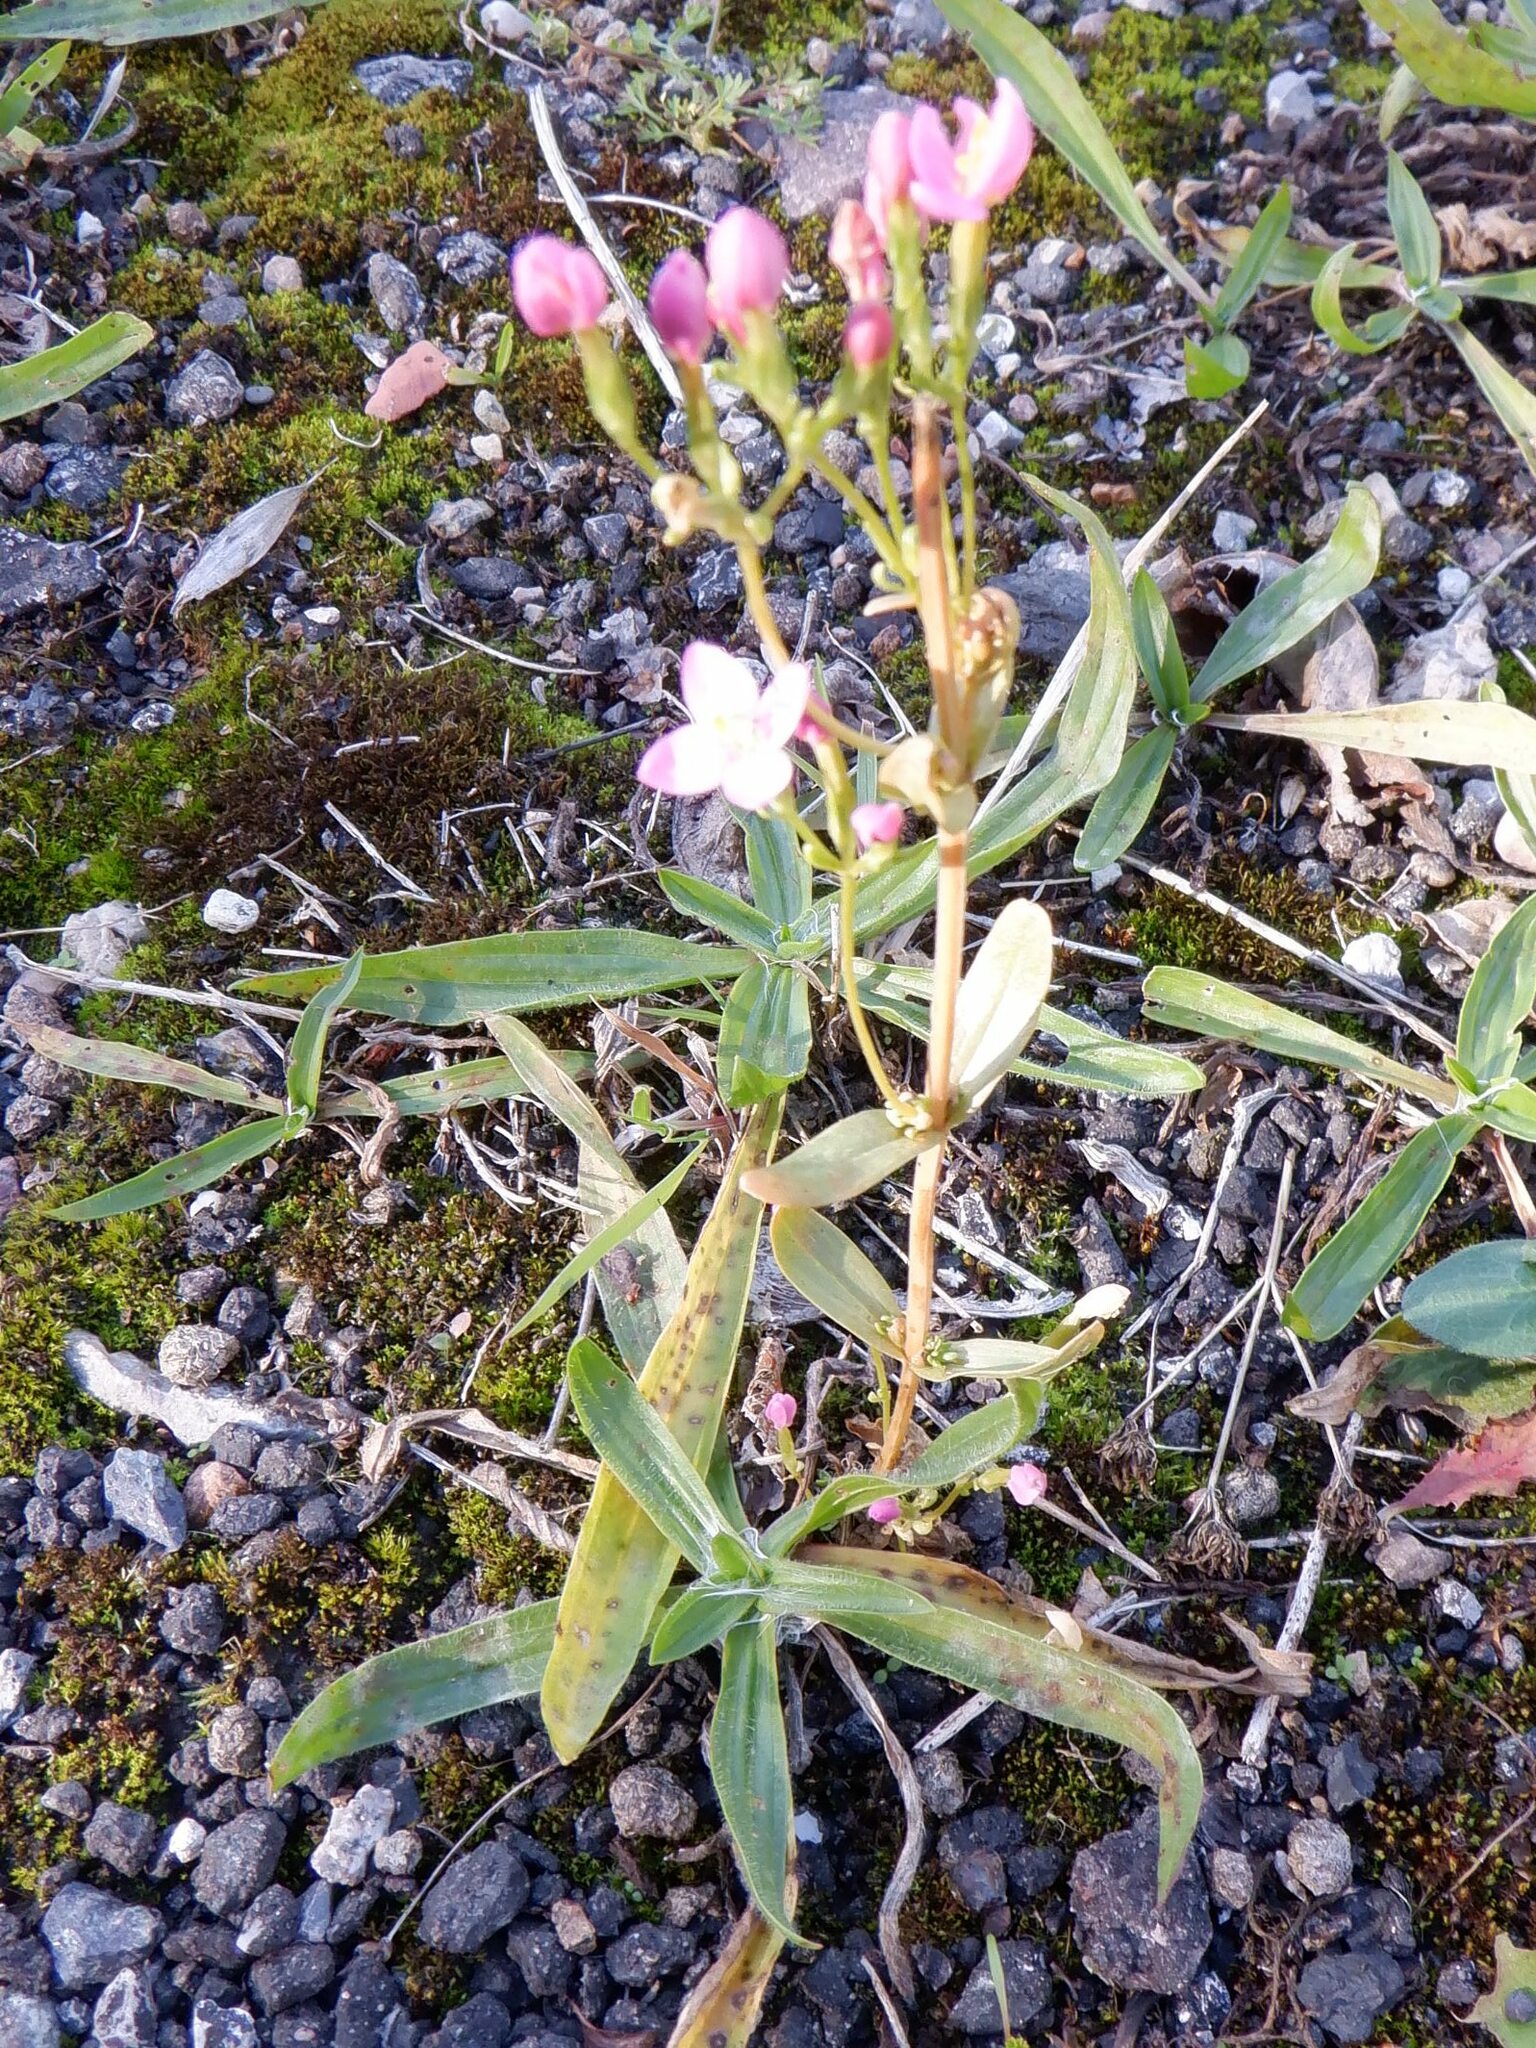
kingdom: Plantae
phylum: Tracheophyta
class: Magnoliopsida
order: Gentianales
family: Gentianaceae
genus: Centaurium
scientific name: Centaurium erythraea
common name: Common centaury
